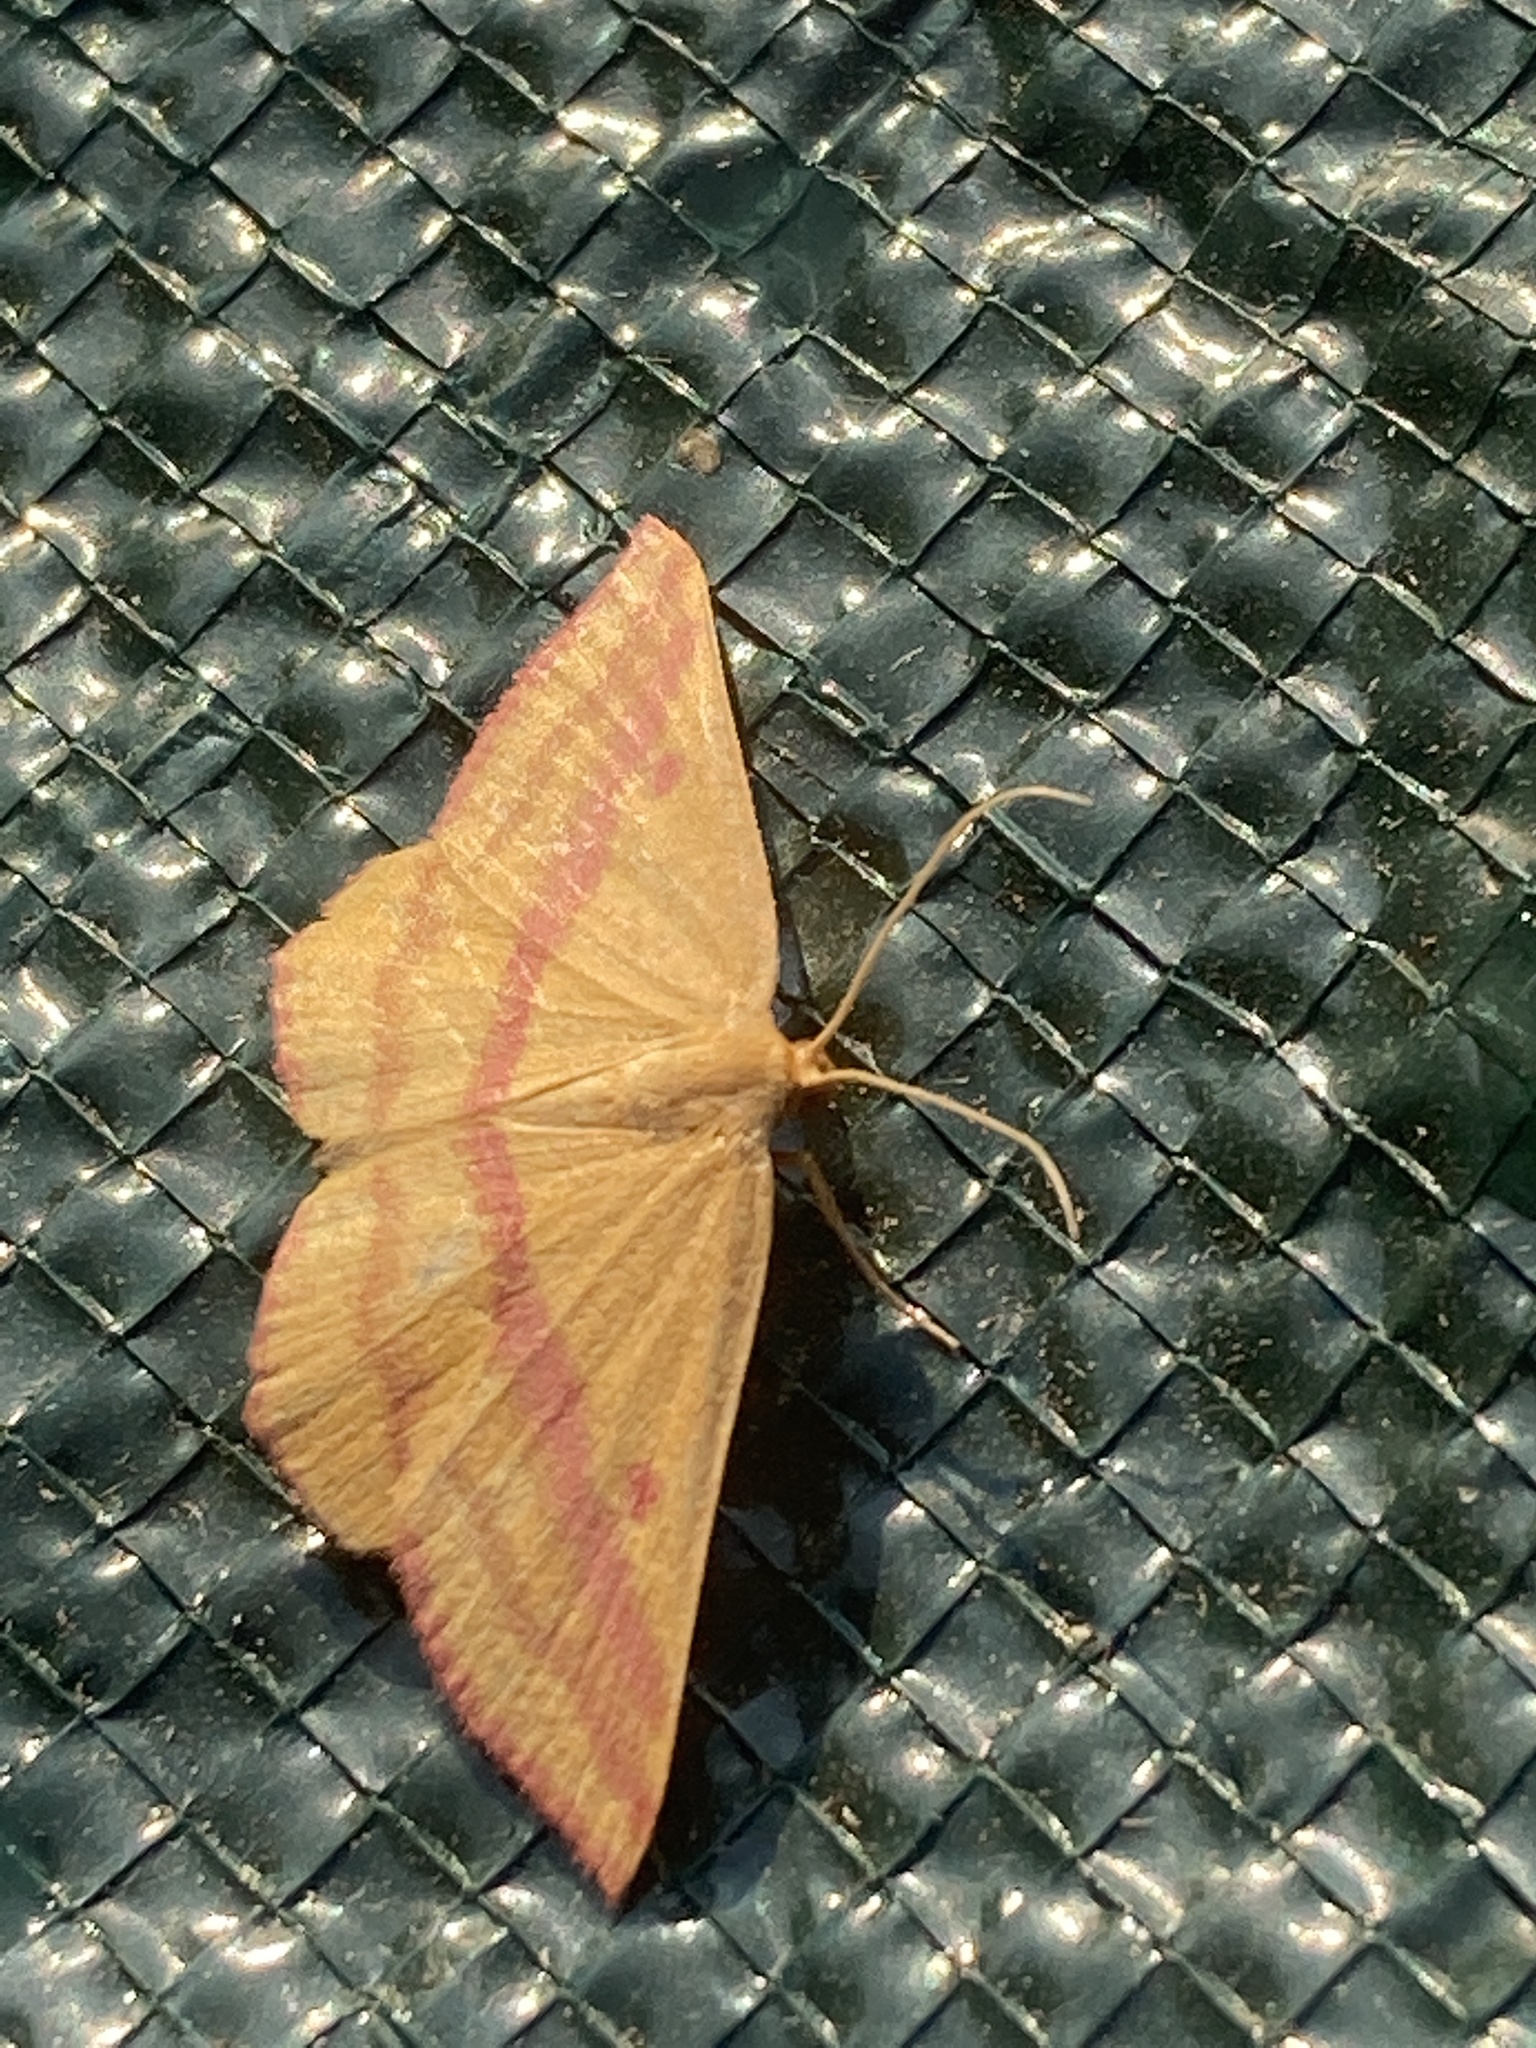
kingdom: Animalia
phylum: Arthropoda
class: Insecta
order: Lepidoptera
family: Geometridae
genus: Haematopis
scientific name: Haematopis grataria
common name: Chickweed geometer
